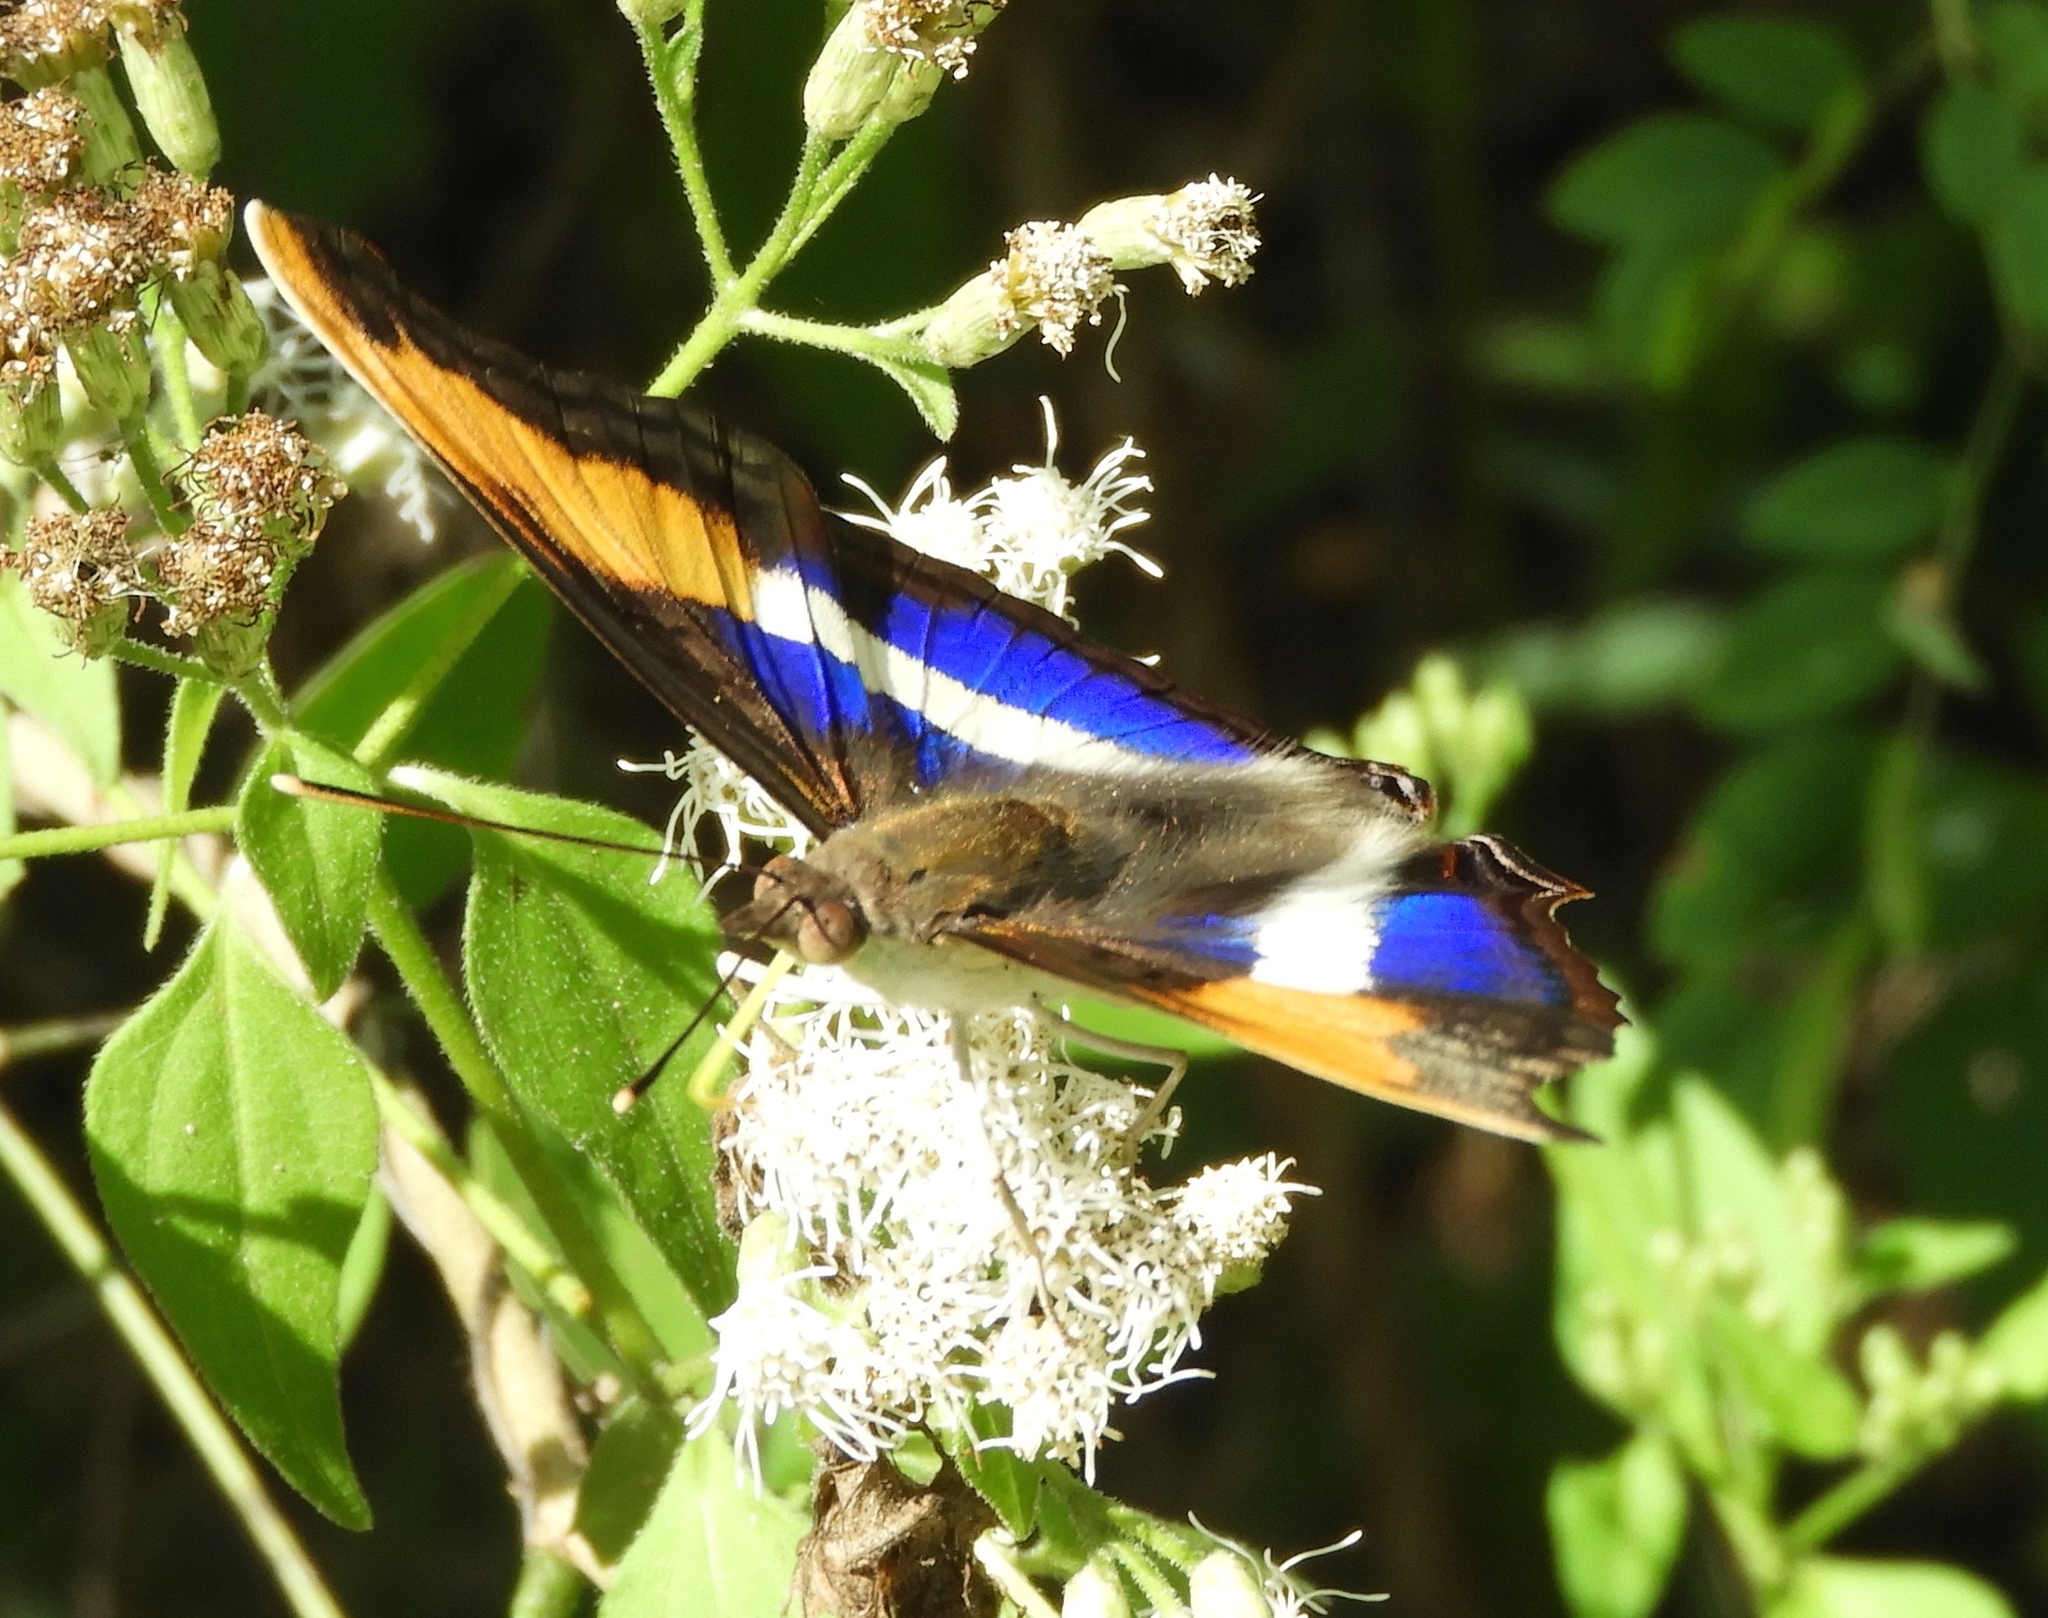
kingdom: Animalia
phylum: Arthropoda
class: Insecta
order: Lepidoptera
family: Nymphalidae
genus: Doxocopa
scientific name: Doxocopa laure
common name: Silver emperor
